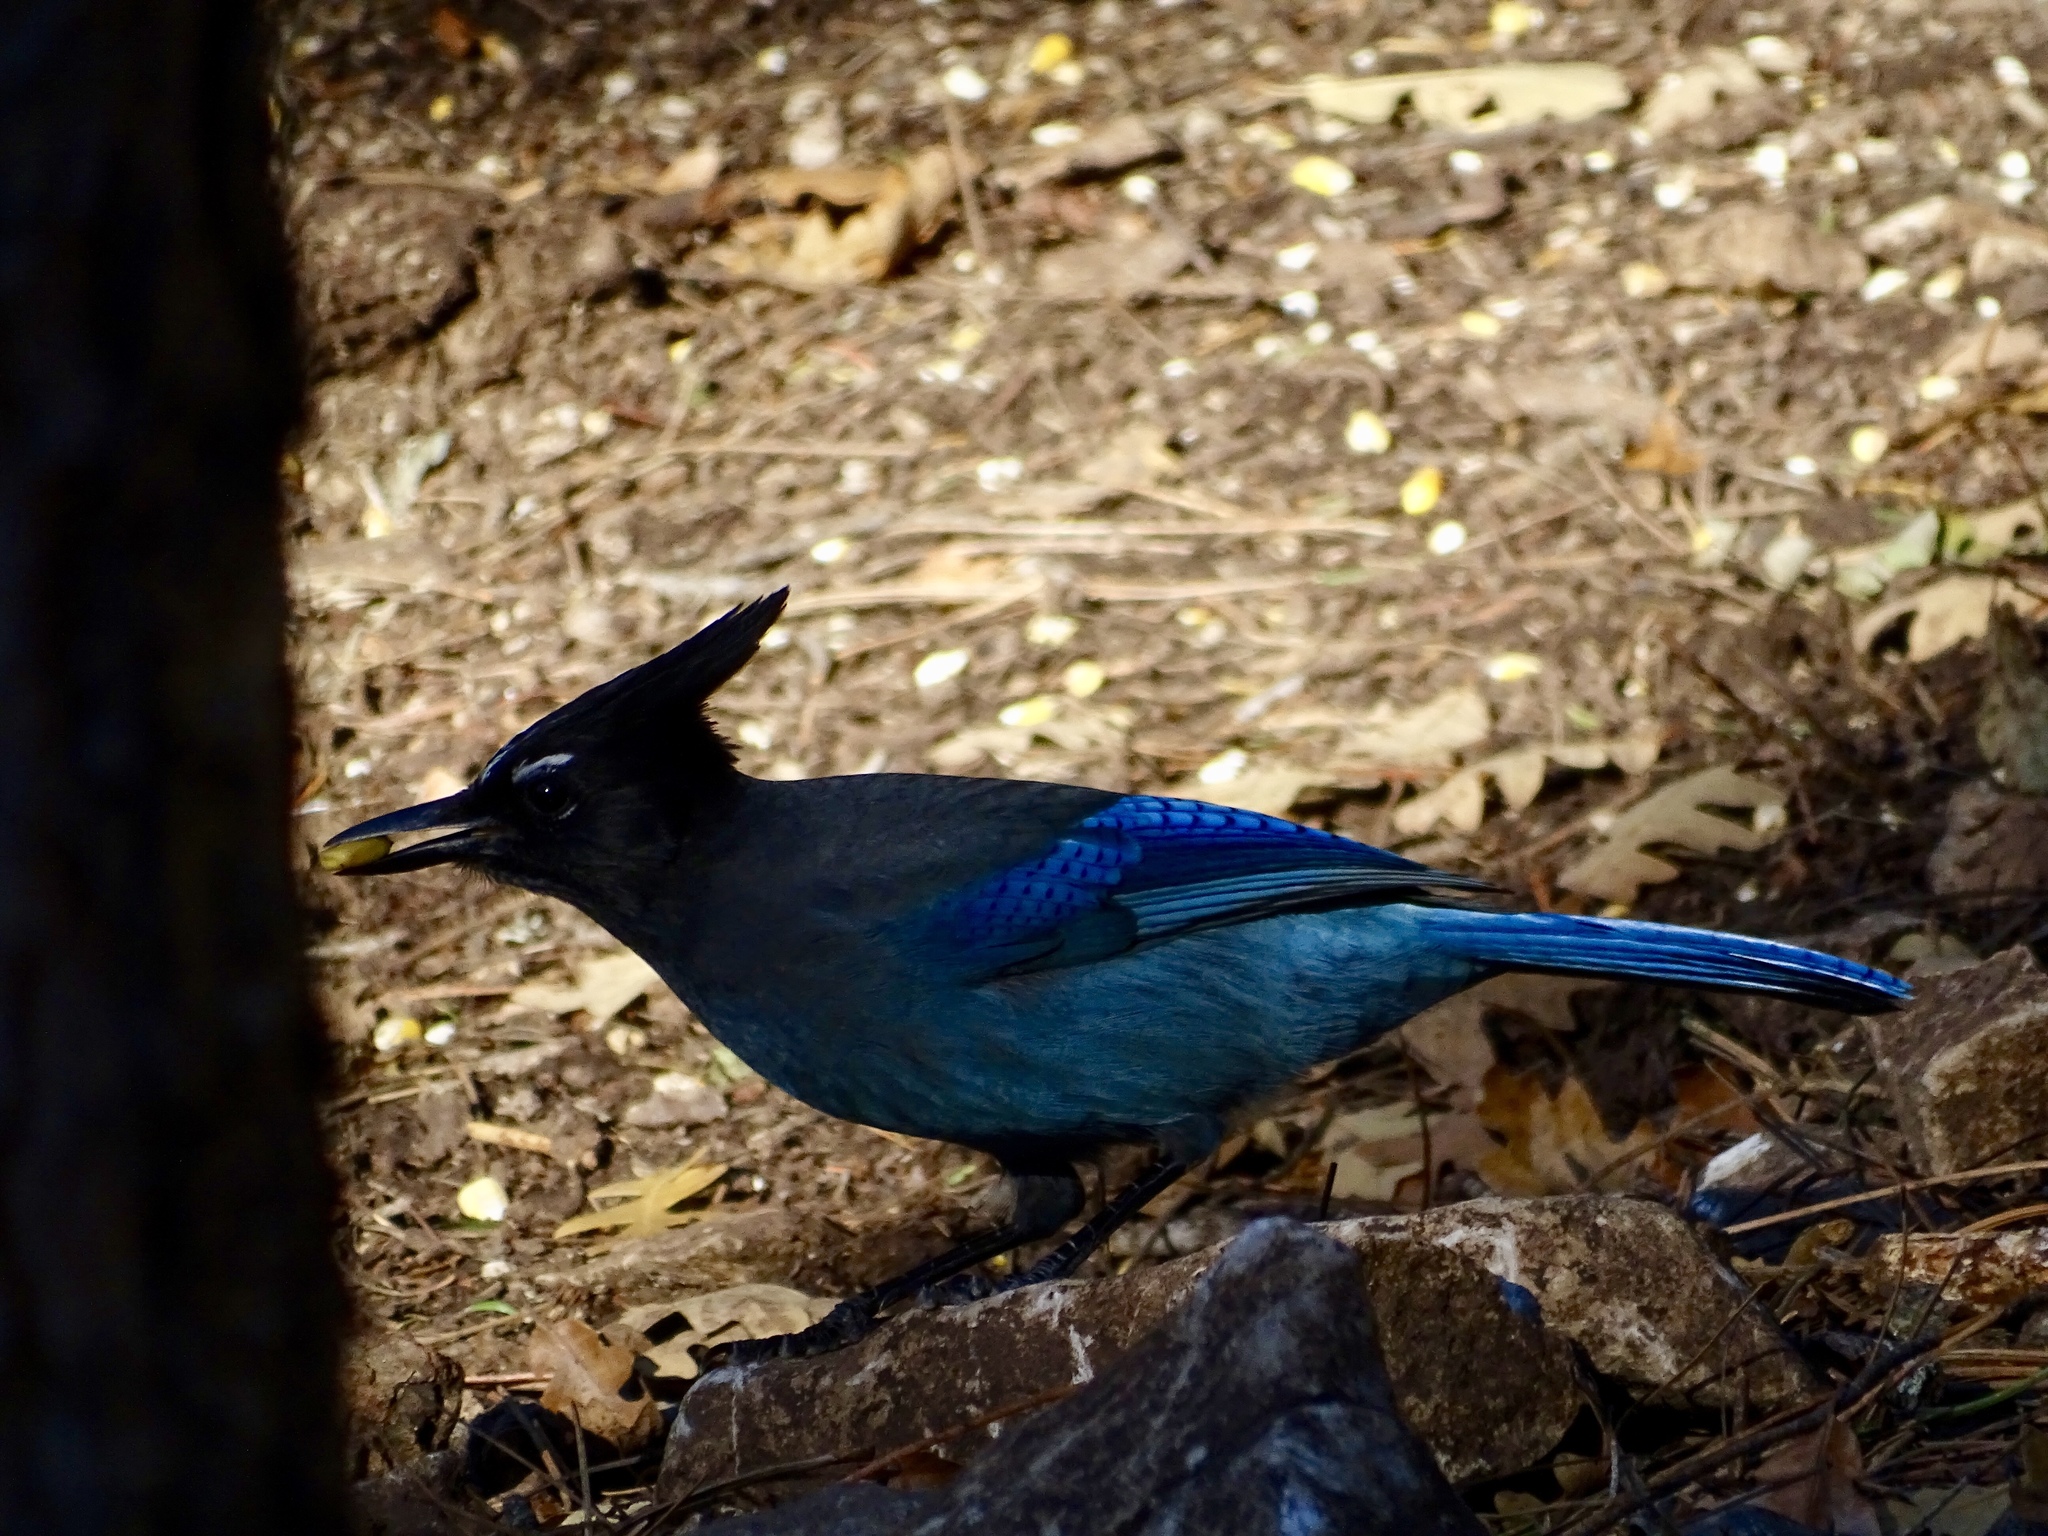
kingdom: Animalia
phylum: Chordata
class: Aves
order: Passeriformes
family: Corvidae
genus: Cyanocitta
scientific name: Cyanocitta stelleri
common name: Steller's jay
